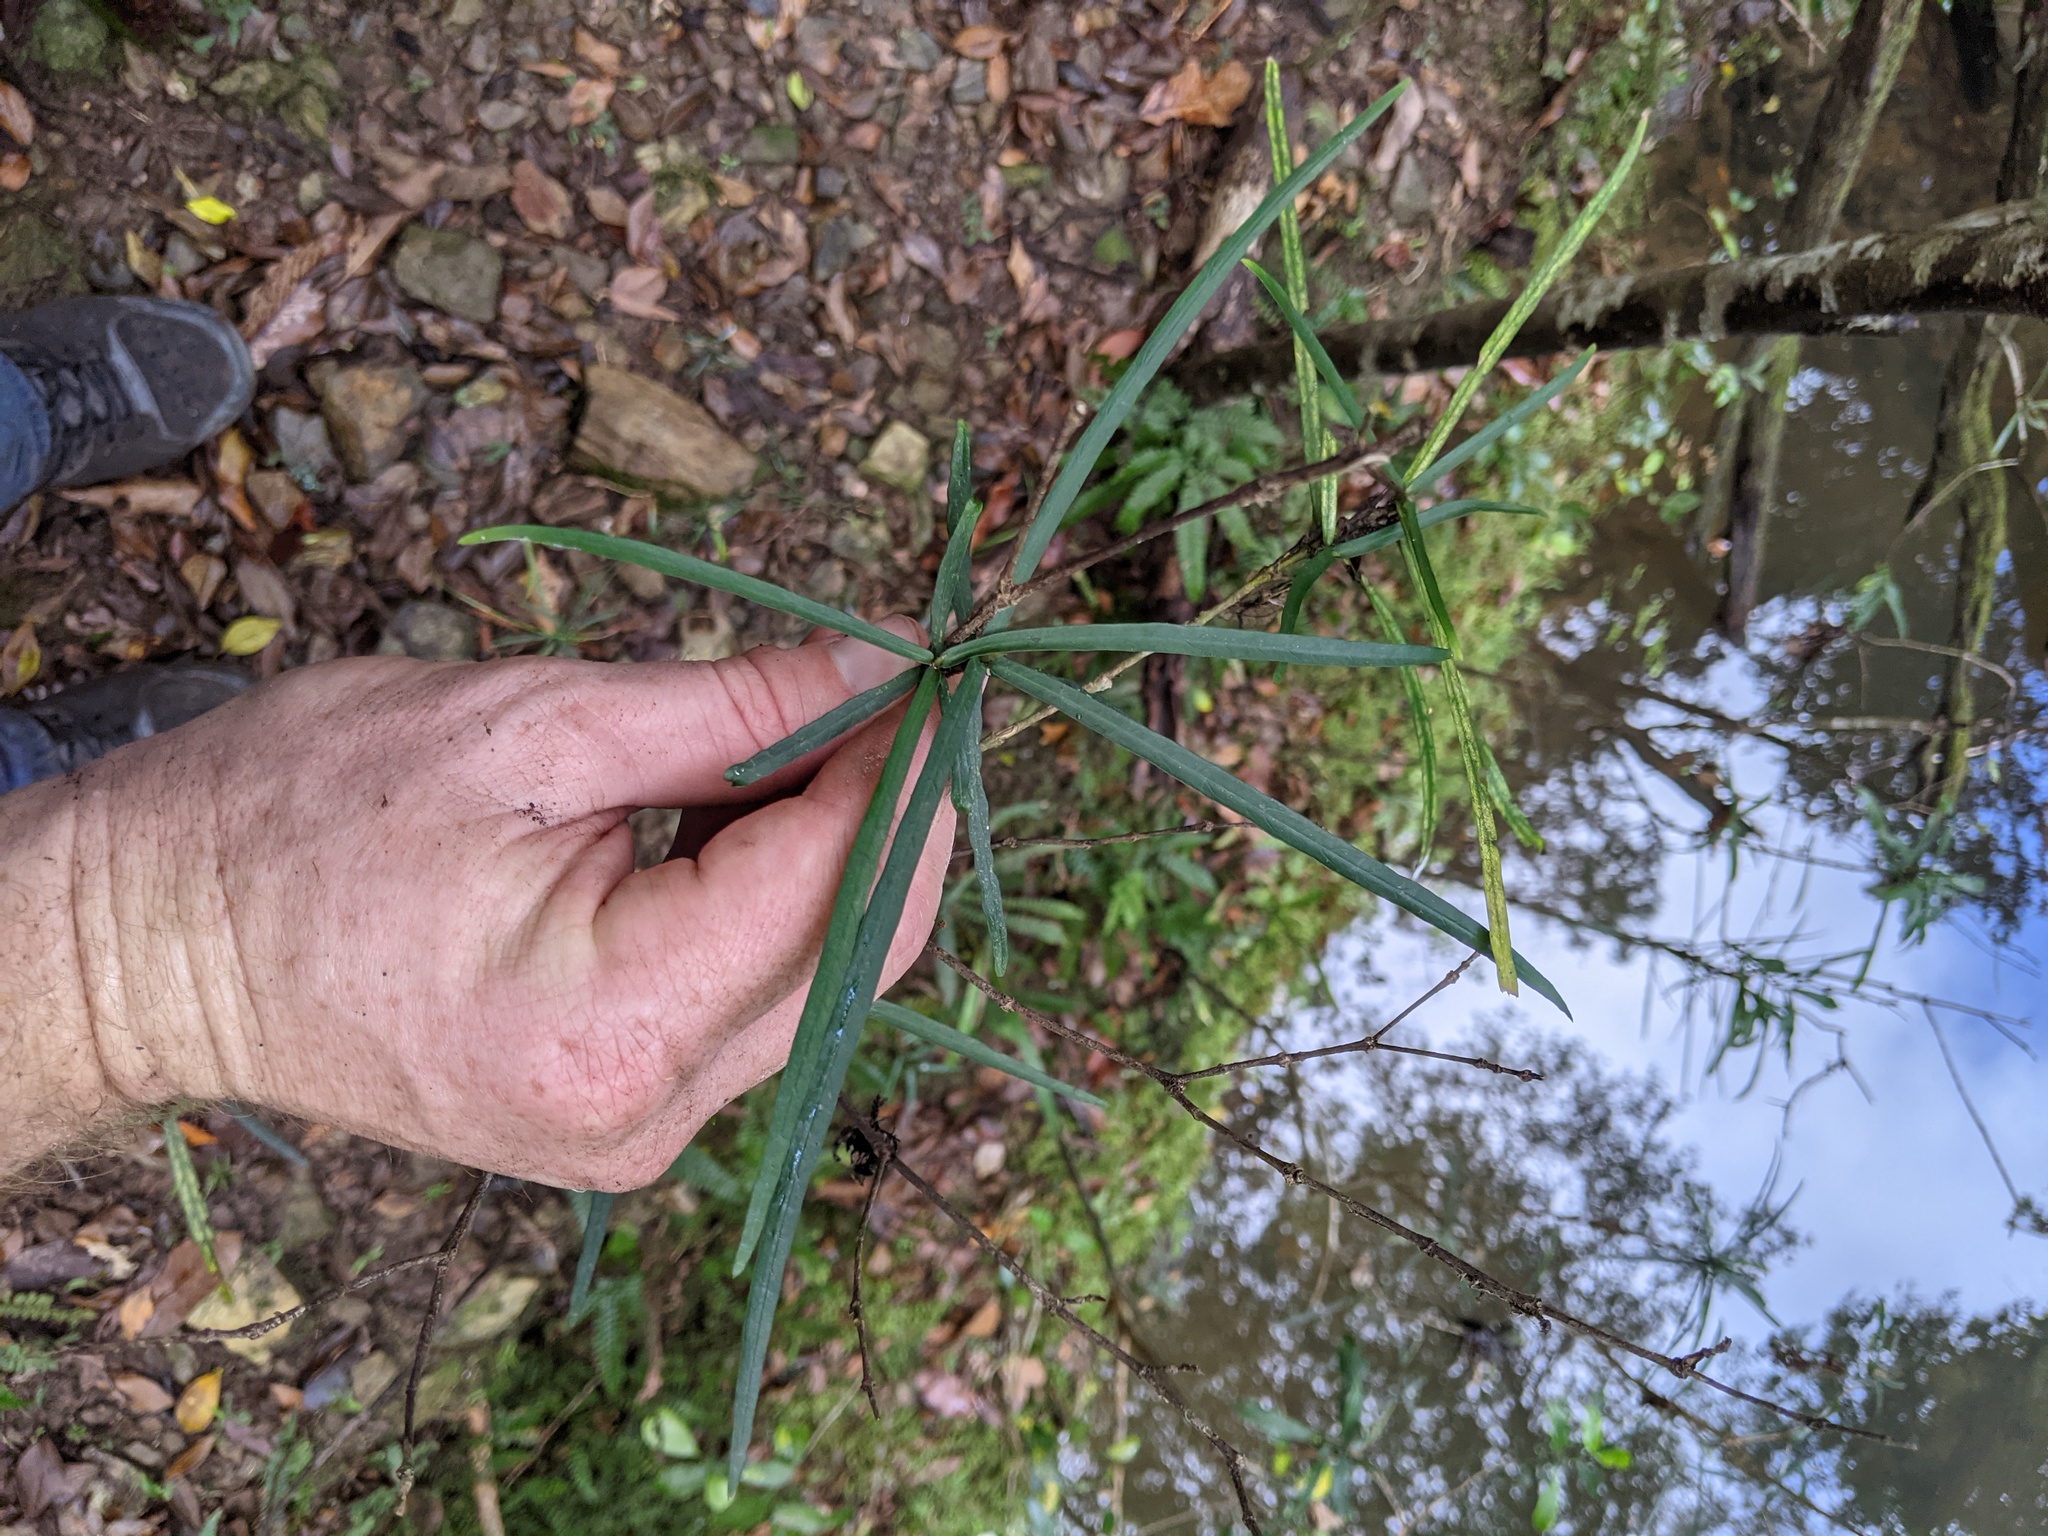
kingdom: Plantae
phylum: Tracheophyta
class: Magnoliopsida
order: Gentianales
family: Rubiaceae
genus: Atractocarpus
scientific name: Atractocarpus chartaceus
